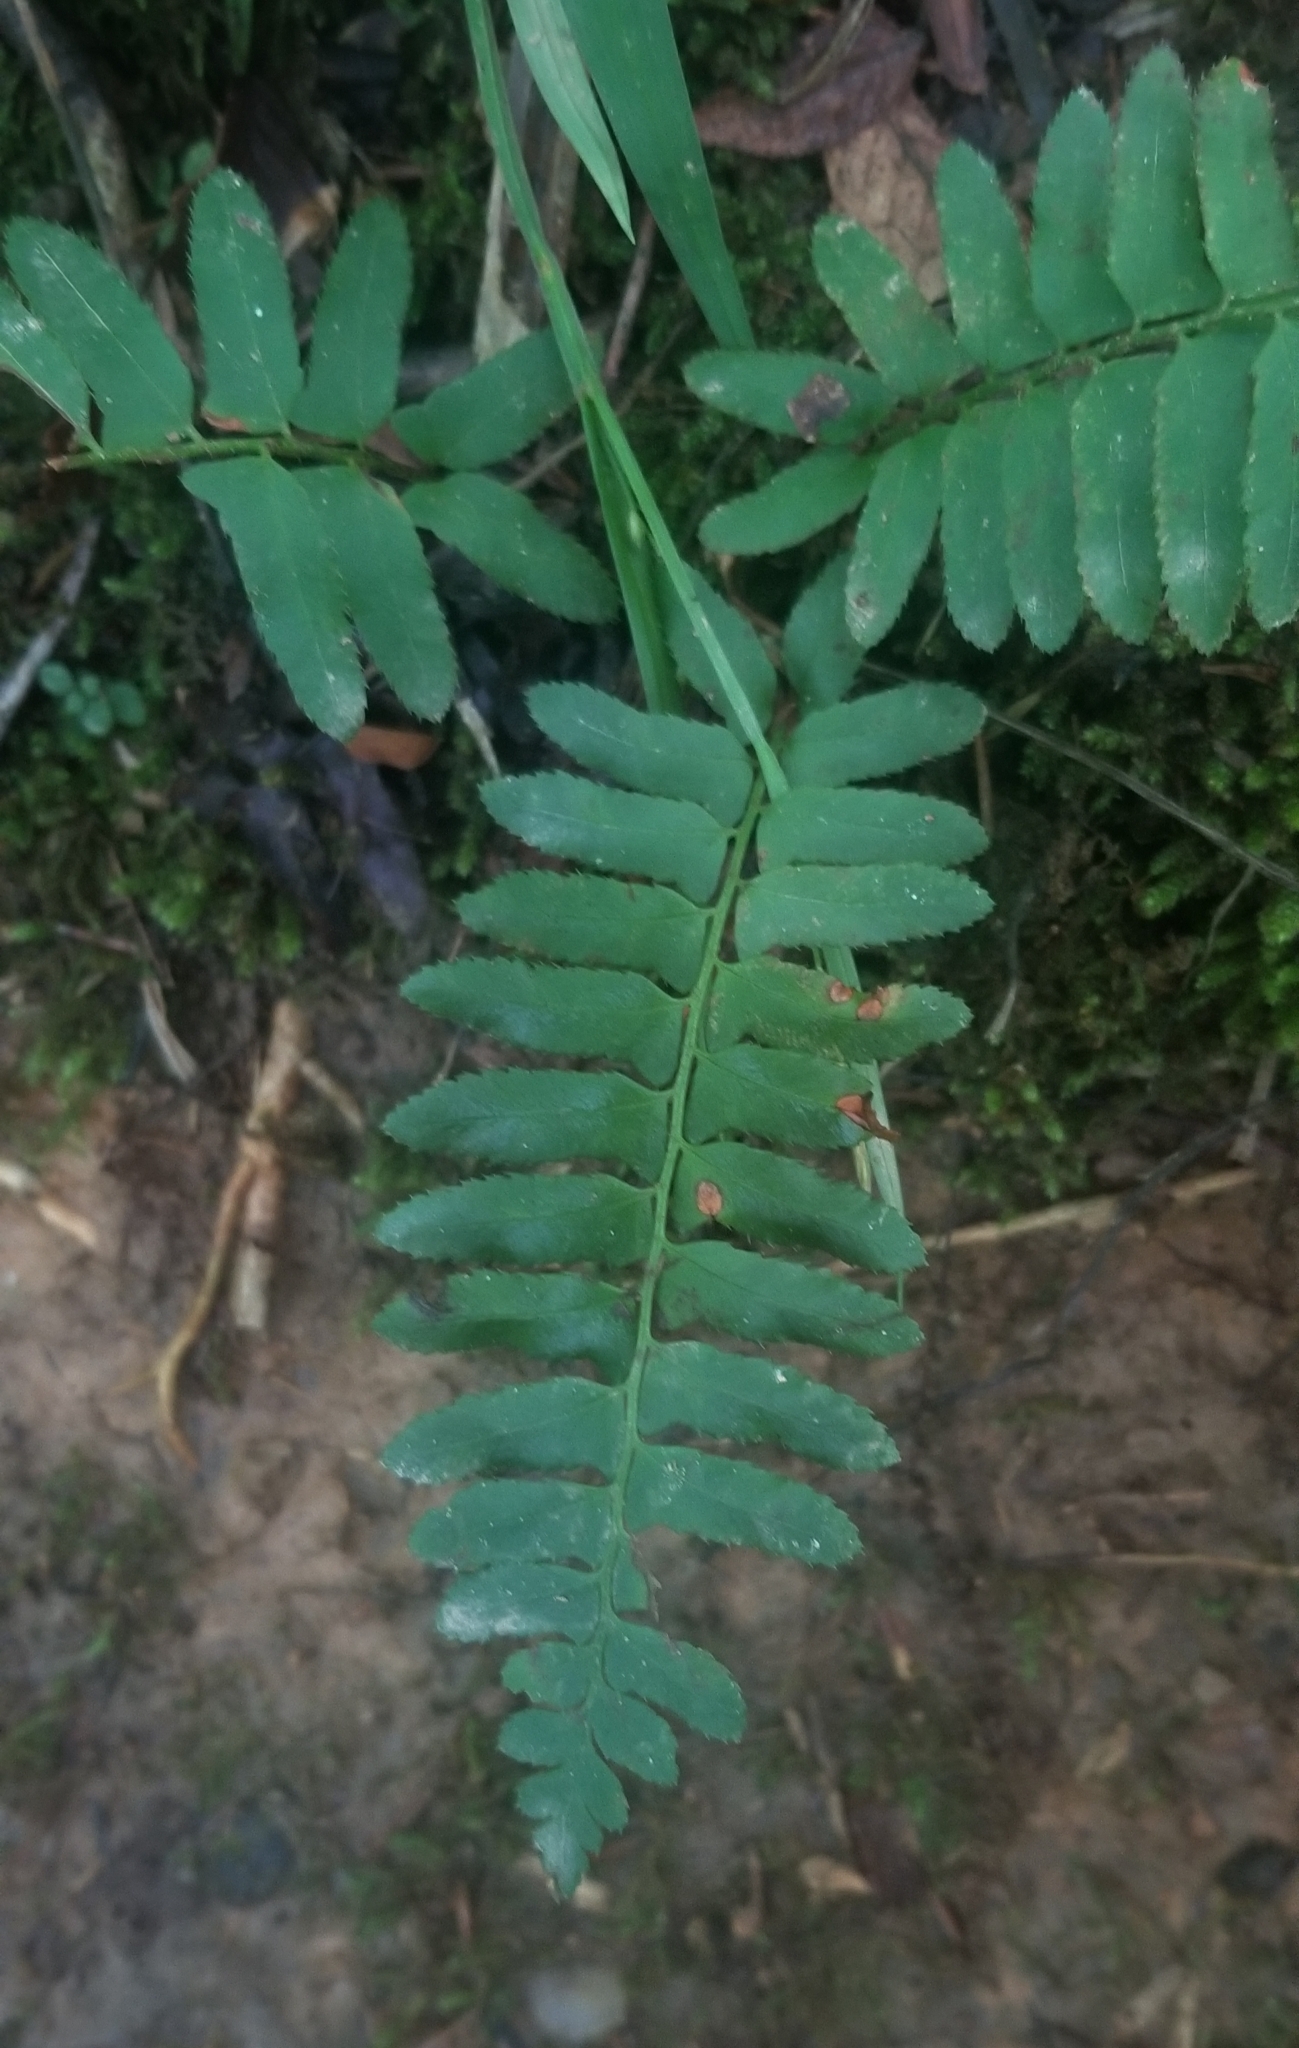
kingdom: Plantae
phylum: Tracheophyta
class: Polypodiopsida
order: Polypodiales
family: Dryopteridaceae
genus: Polystichum
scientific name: Polystichum acrostichoides
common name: Christmas fern
